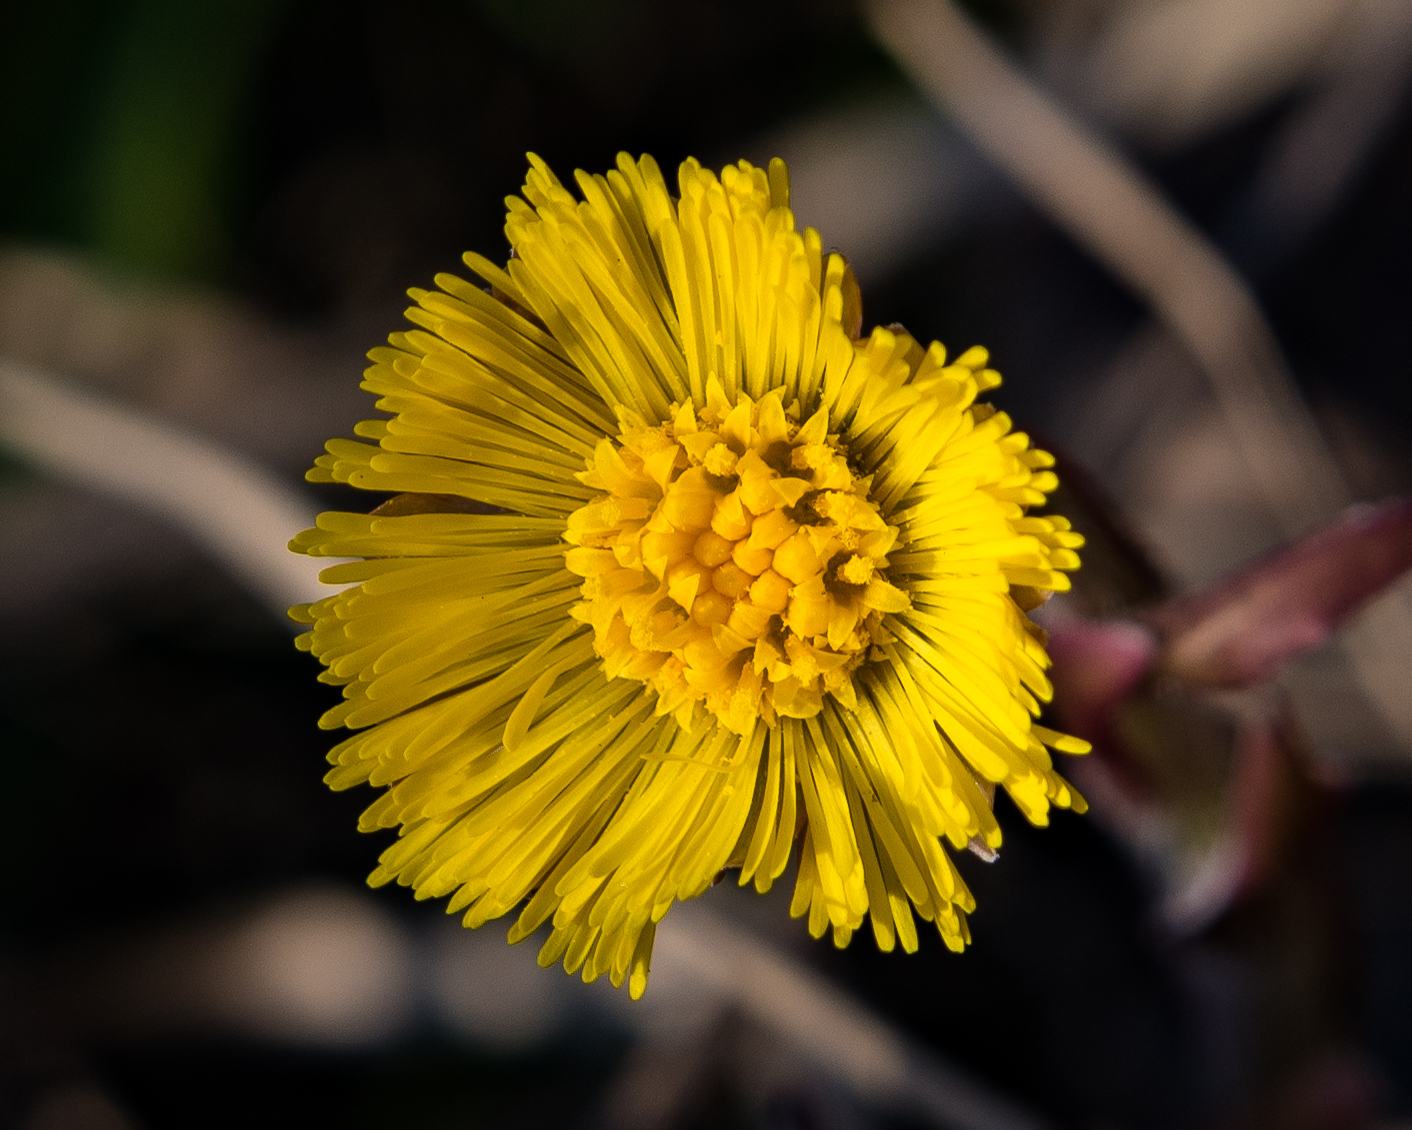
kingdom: Plantae
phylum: Tracheophyta
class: Magnoliopsida
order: Asterales
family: Asteraceae
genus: Tussilago
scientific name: Tussilago farfara
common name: Coltsfoot
